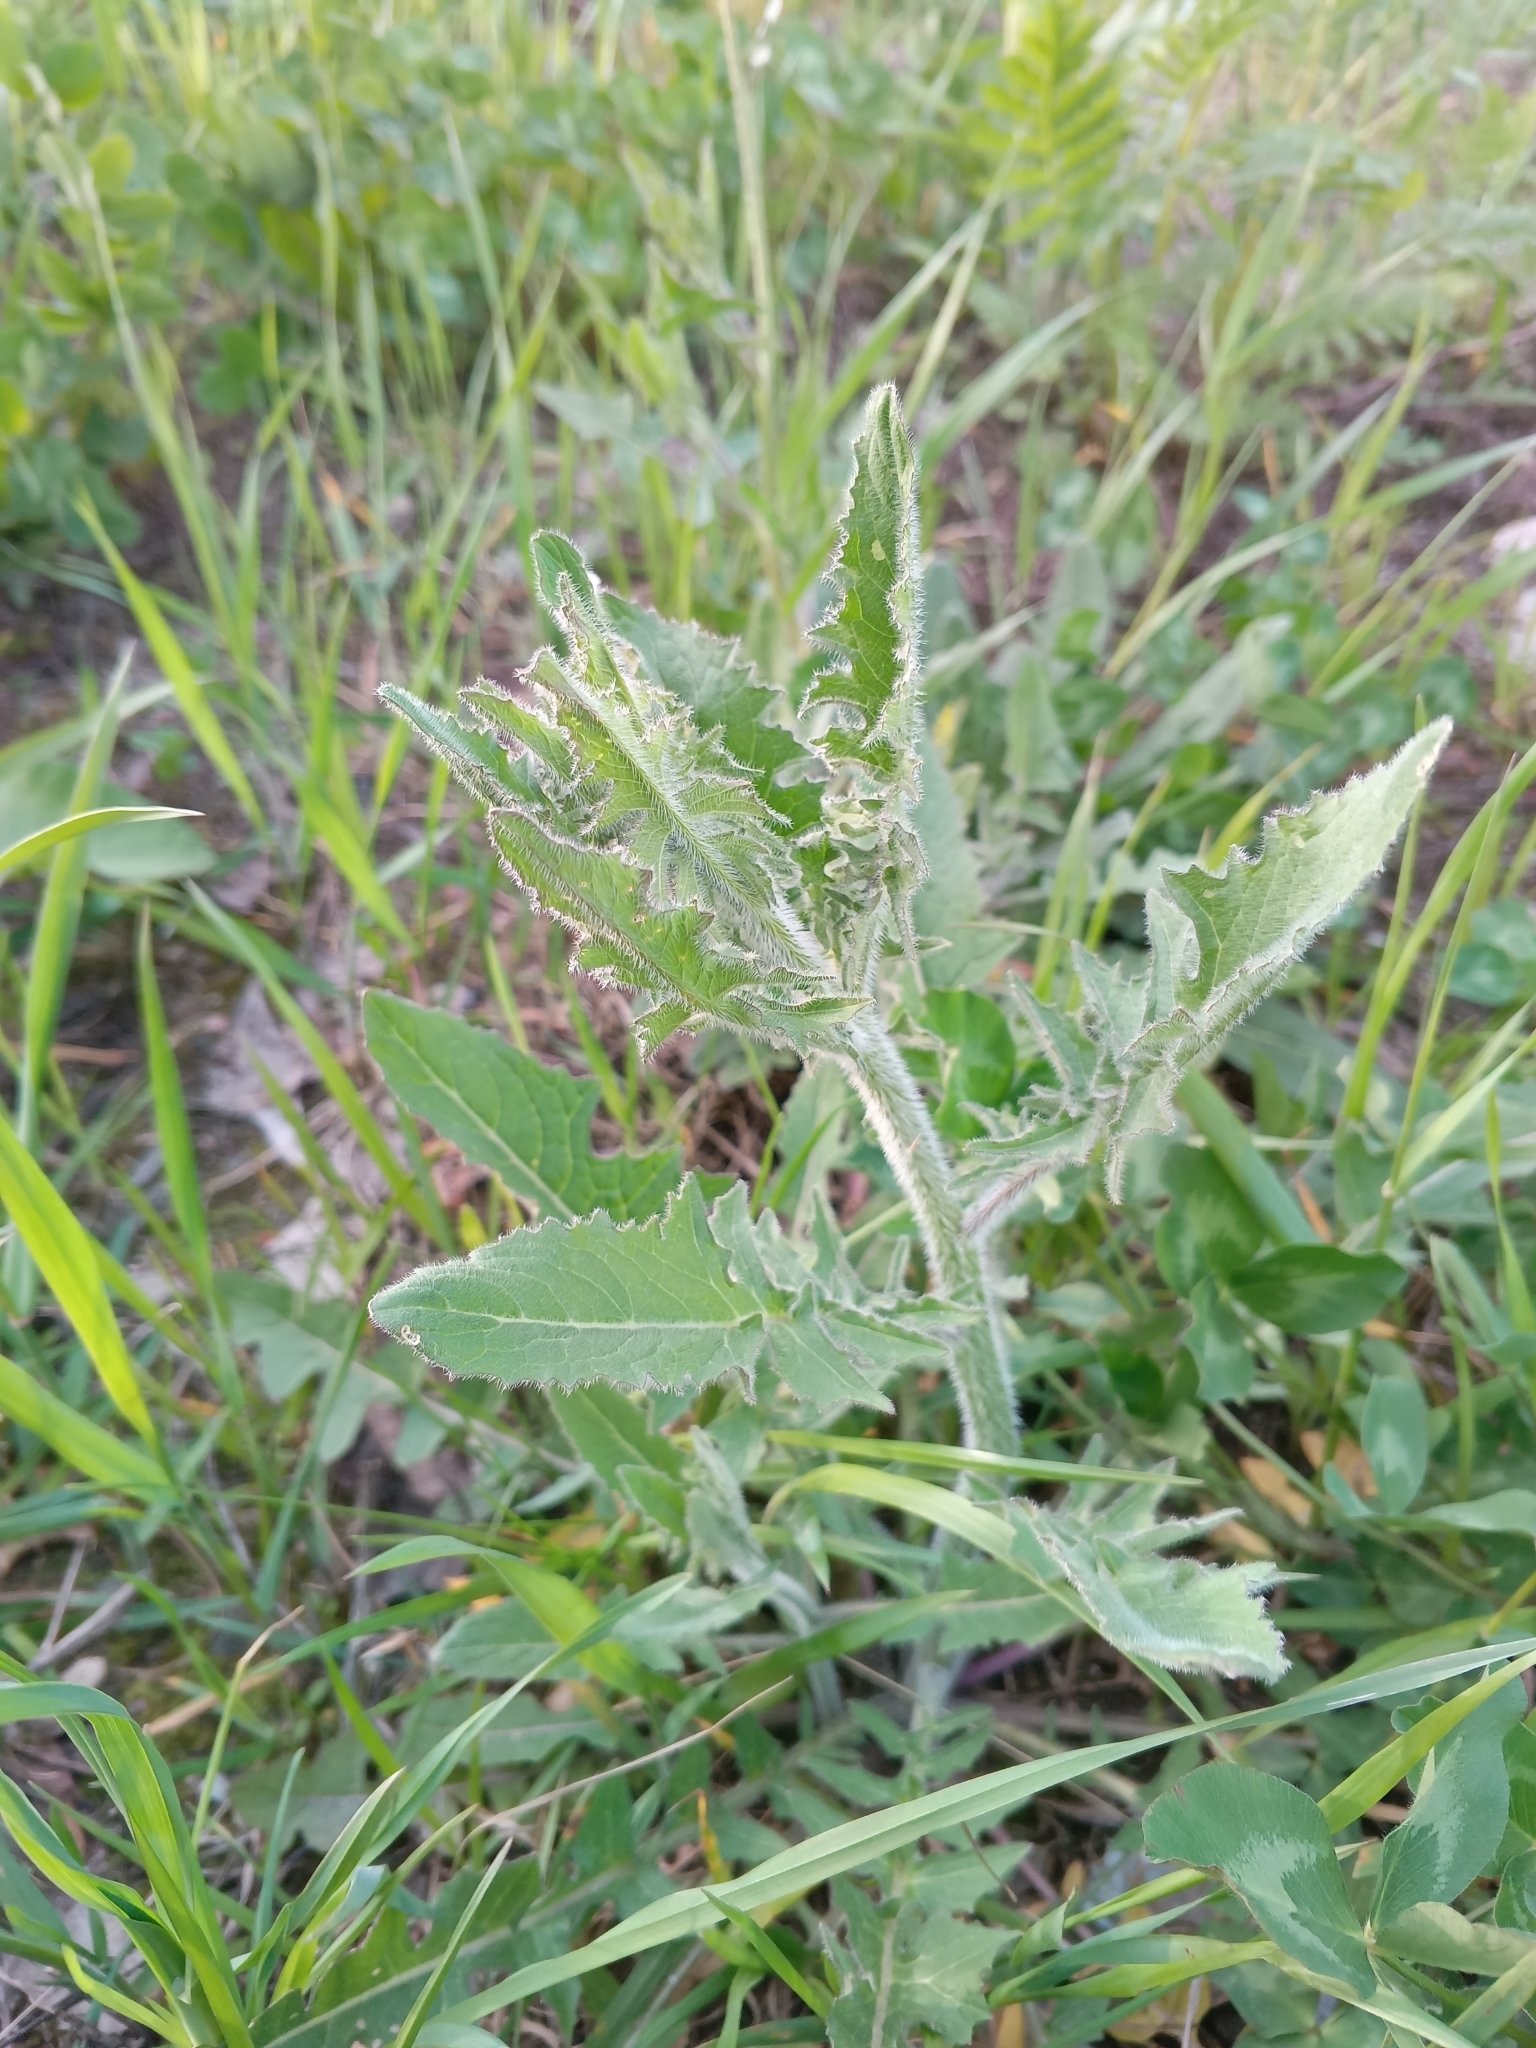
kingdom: Plantae
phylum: Tracheophyta
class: Magnoliopsida
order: Brassicales
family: Brassicaceae
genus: Sisymbrium
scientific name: Sisymbrium loeselii
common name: False london-rocket
